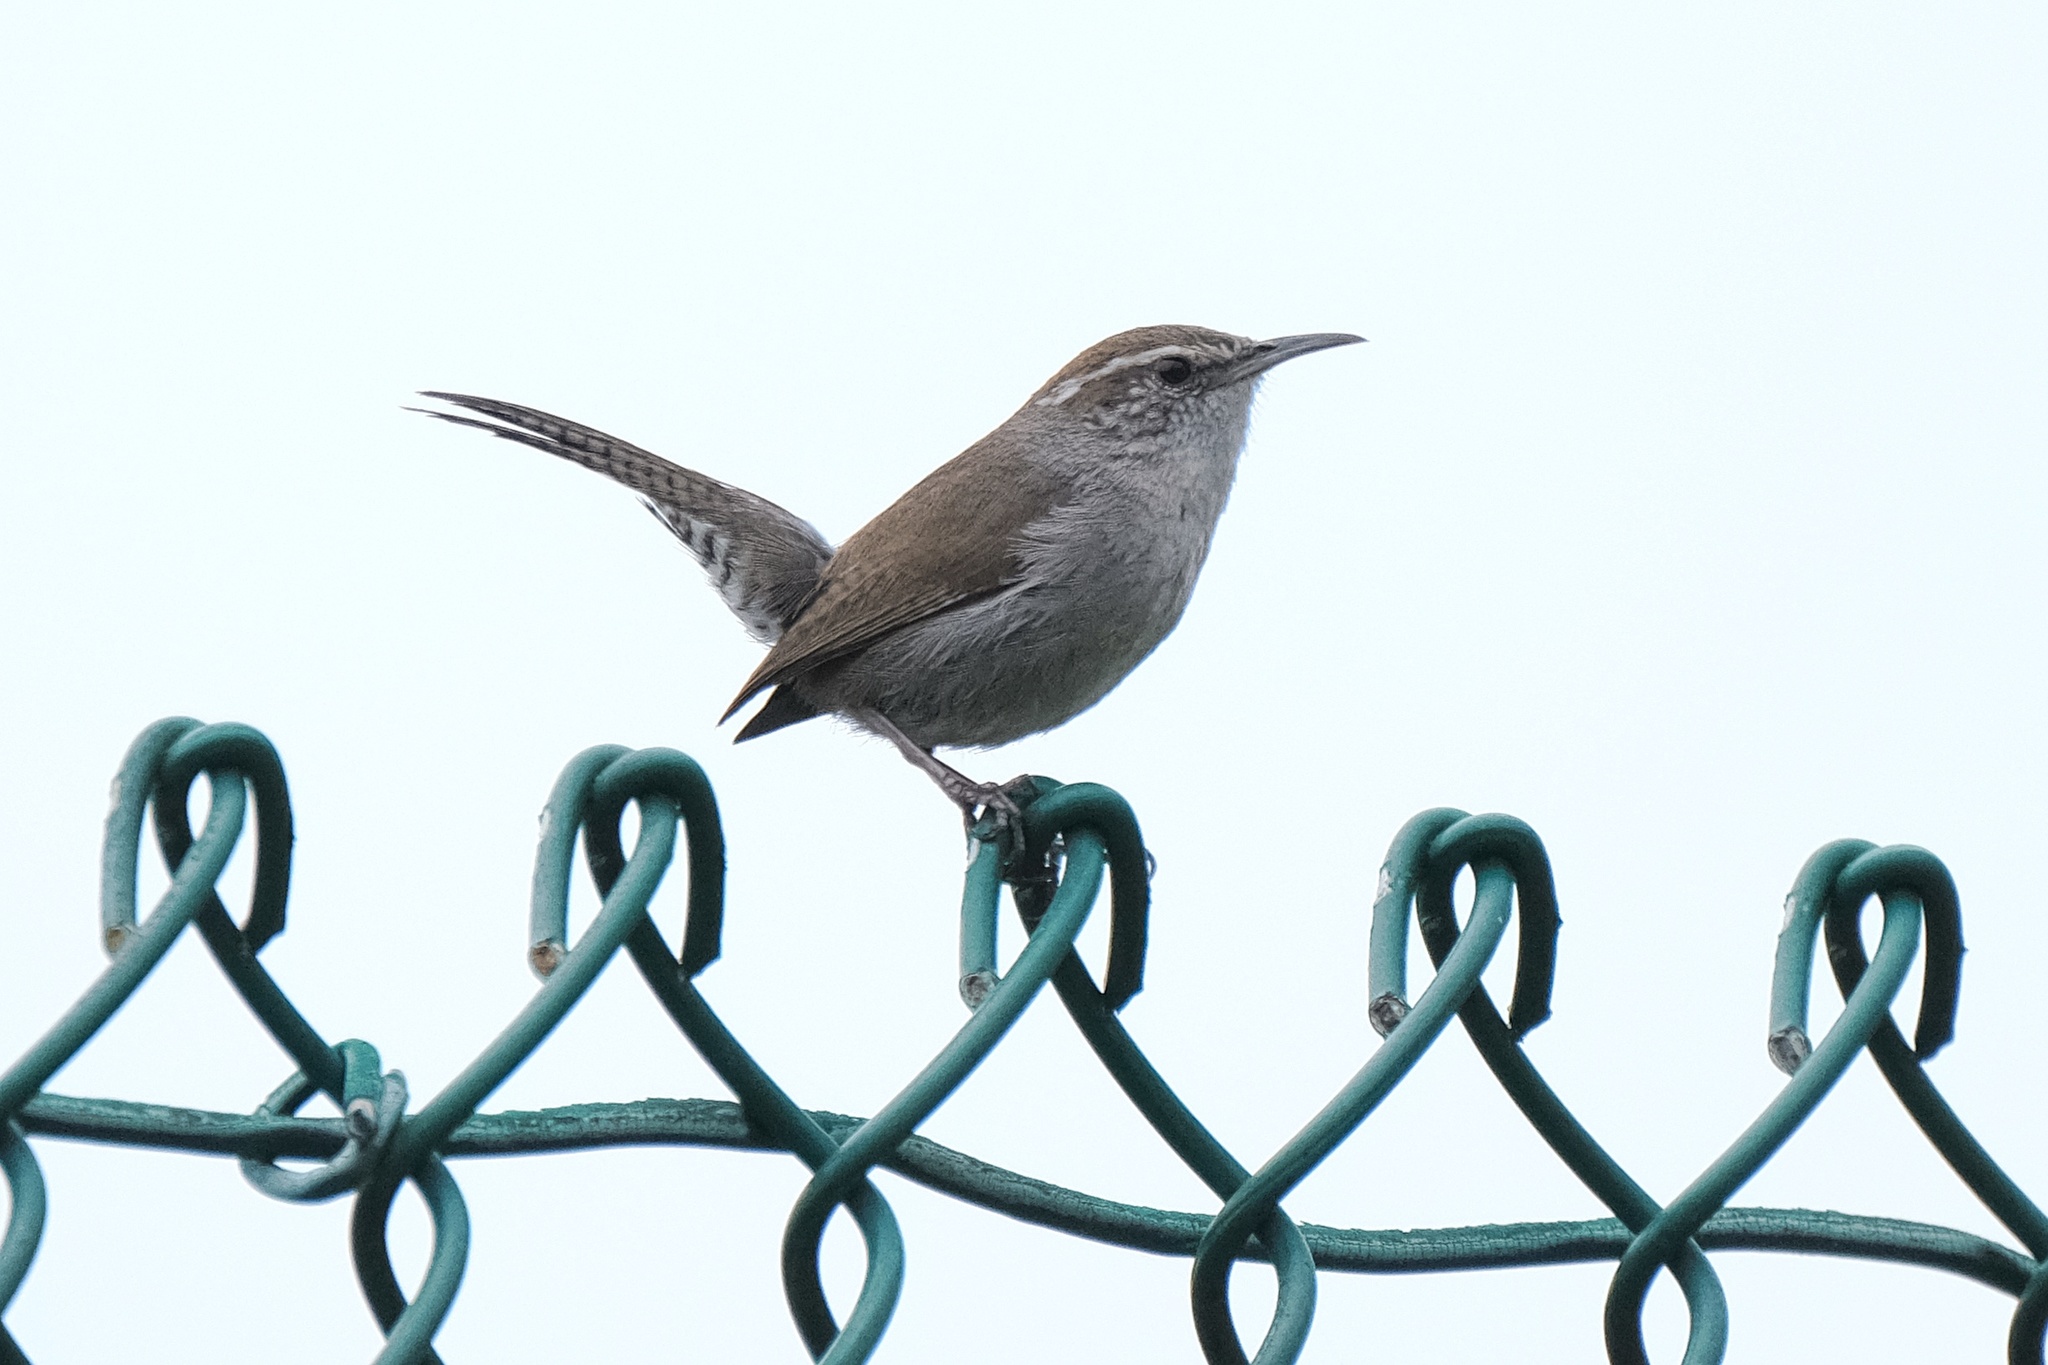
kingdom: Animalia
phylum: Chordata
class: Aves
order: Passeriformes
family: Troglodytidae
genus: Thryomanes
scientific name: Thryomanes bewickii
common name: Bewick's wren
